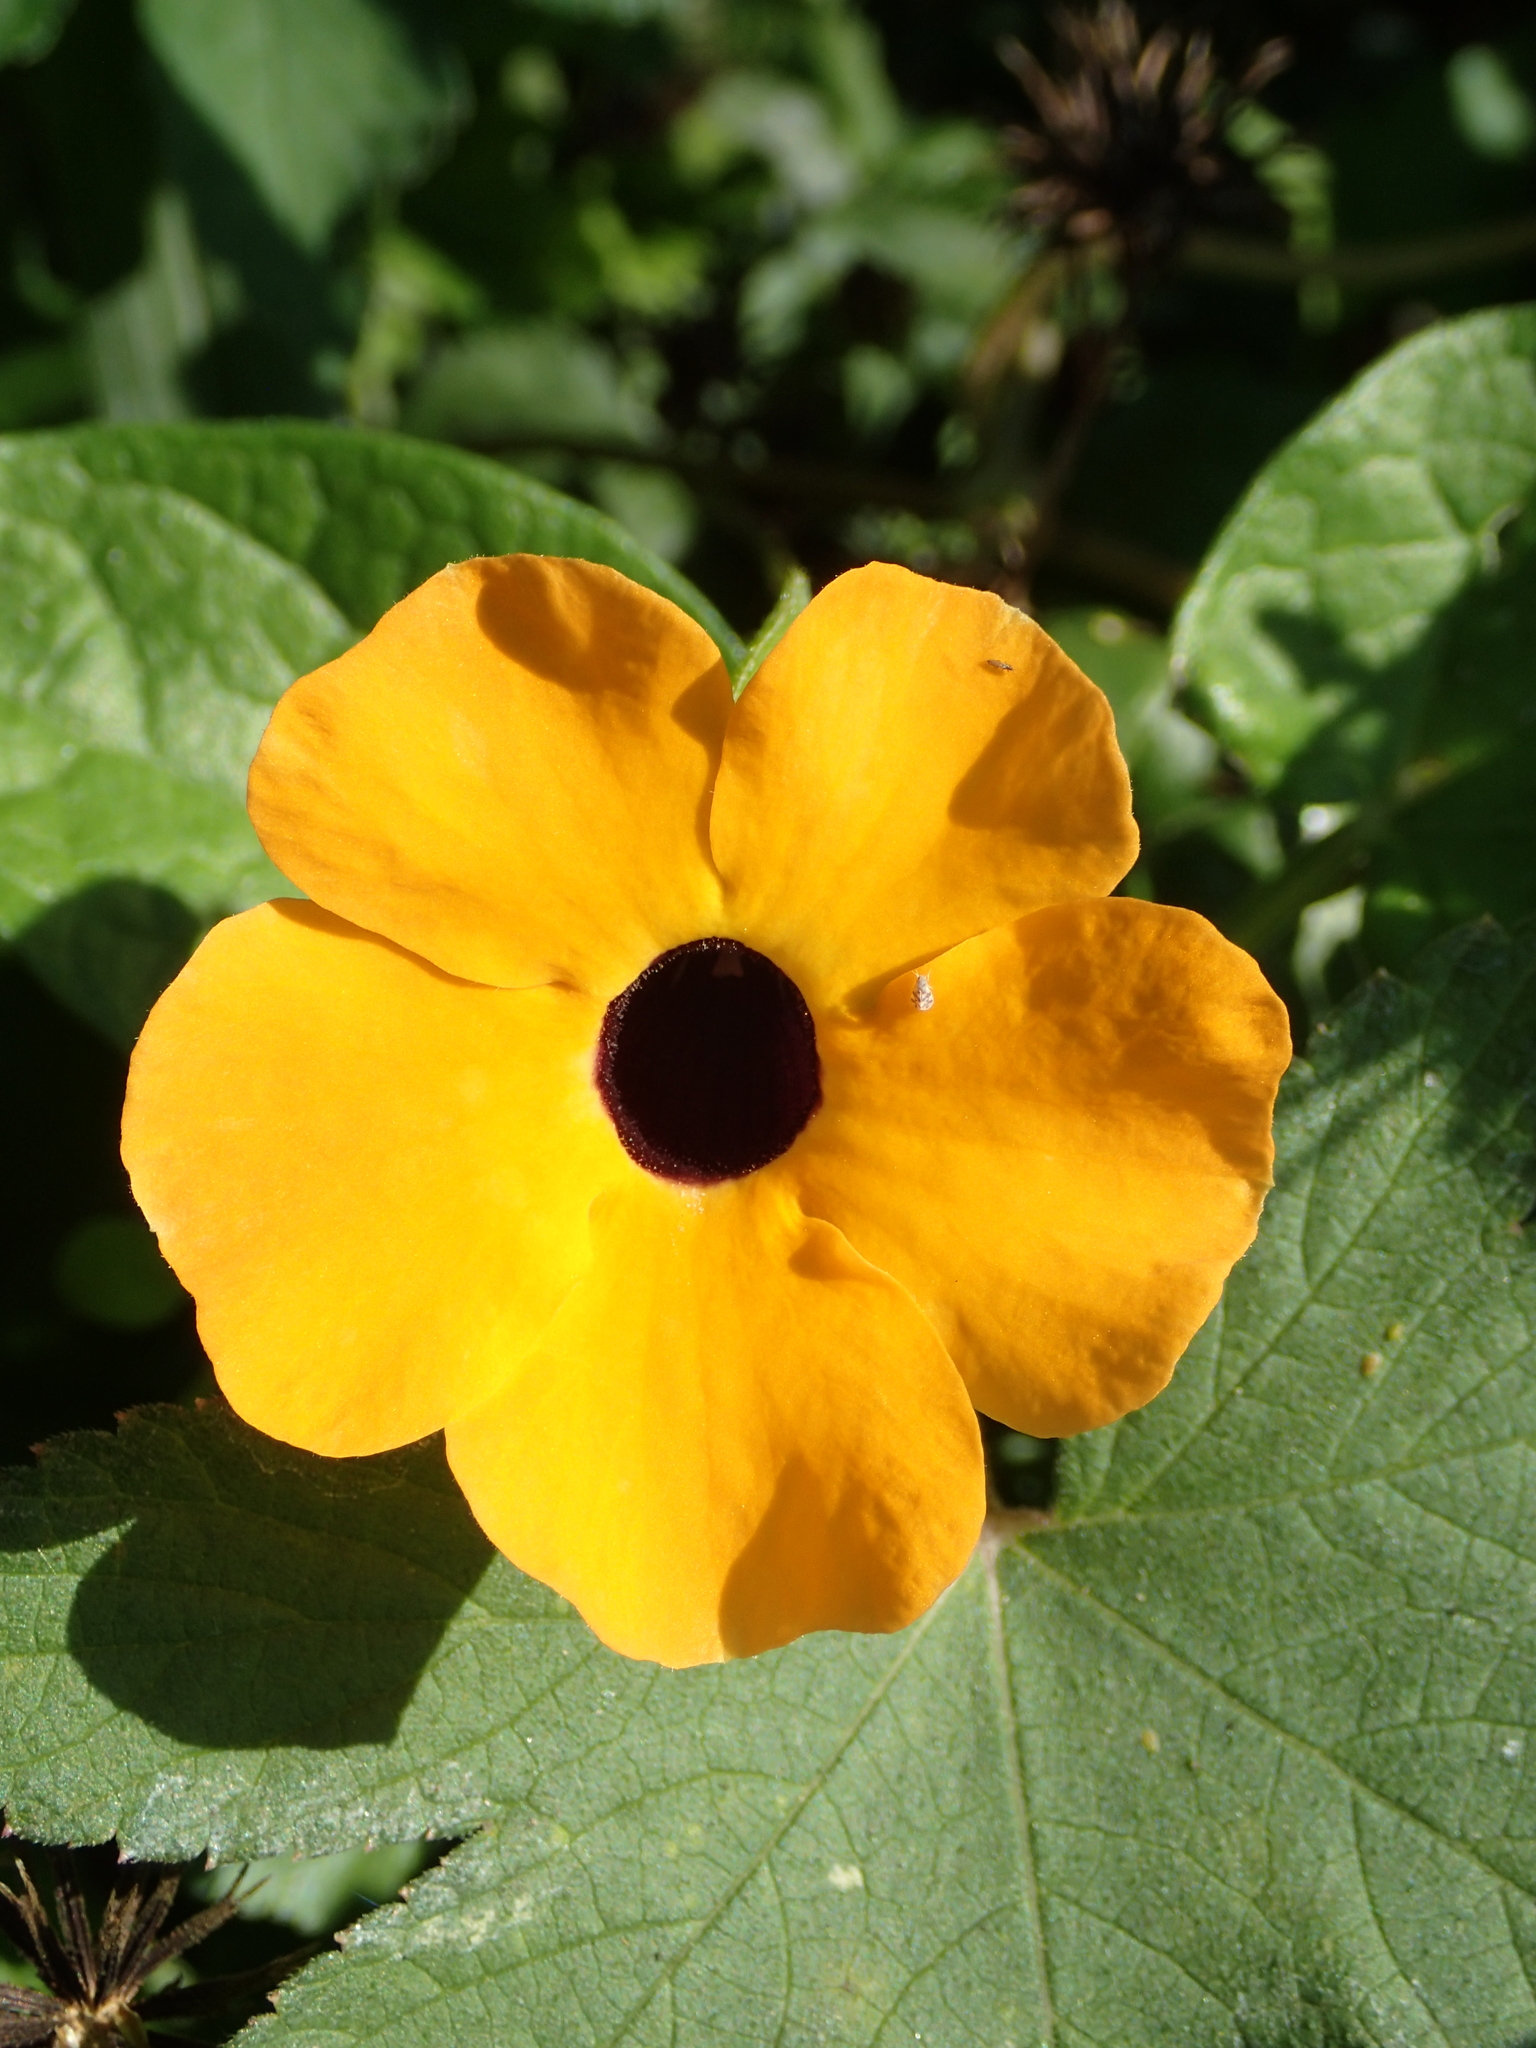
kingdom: Plantae
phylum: Tracheophyta
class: Magnoliopsida
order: Lamiales
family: Acanthaceae
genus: Thunbergia
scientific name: Thunbergia alata
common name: Blackeyed susan vine
